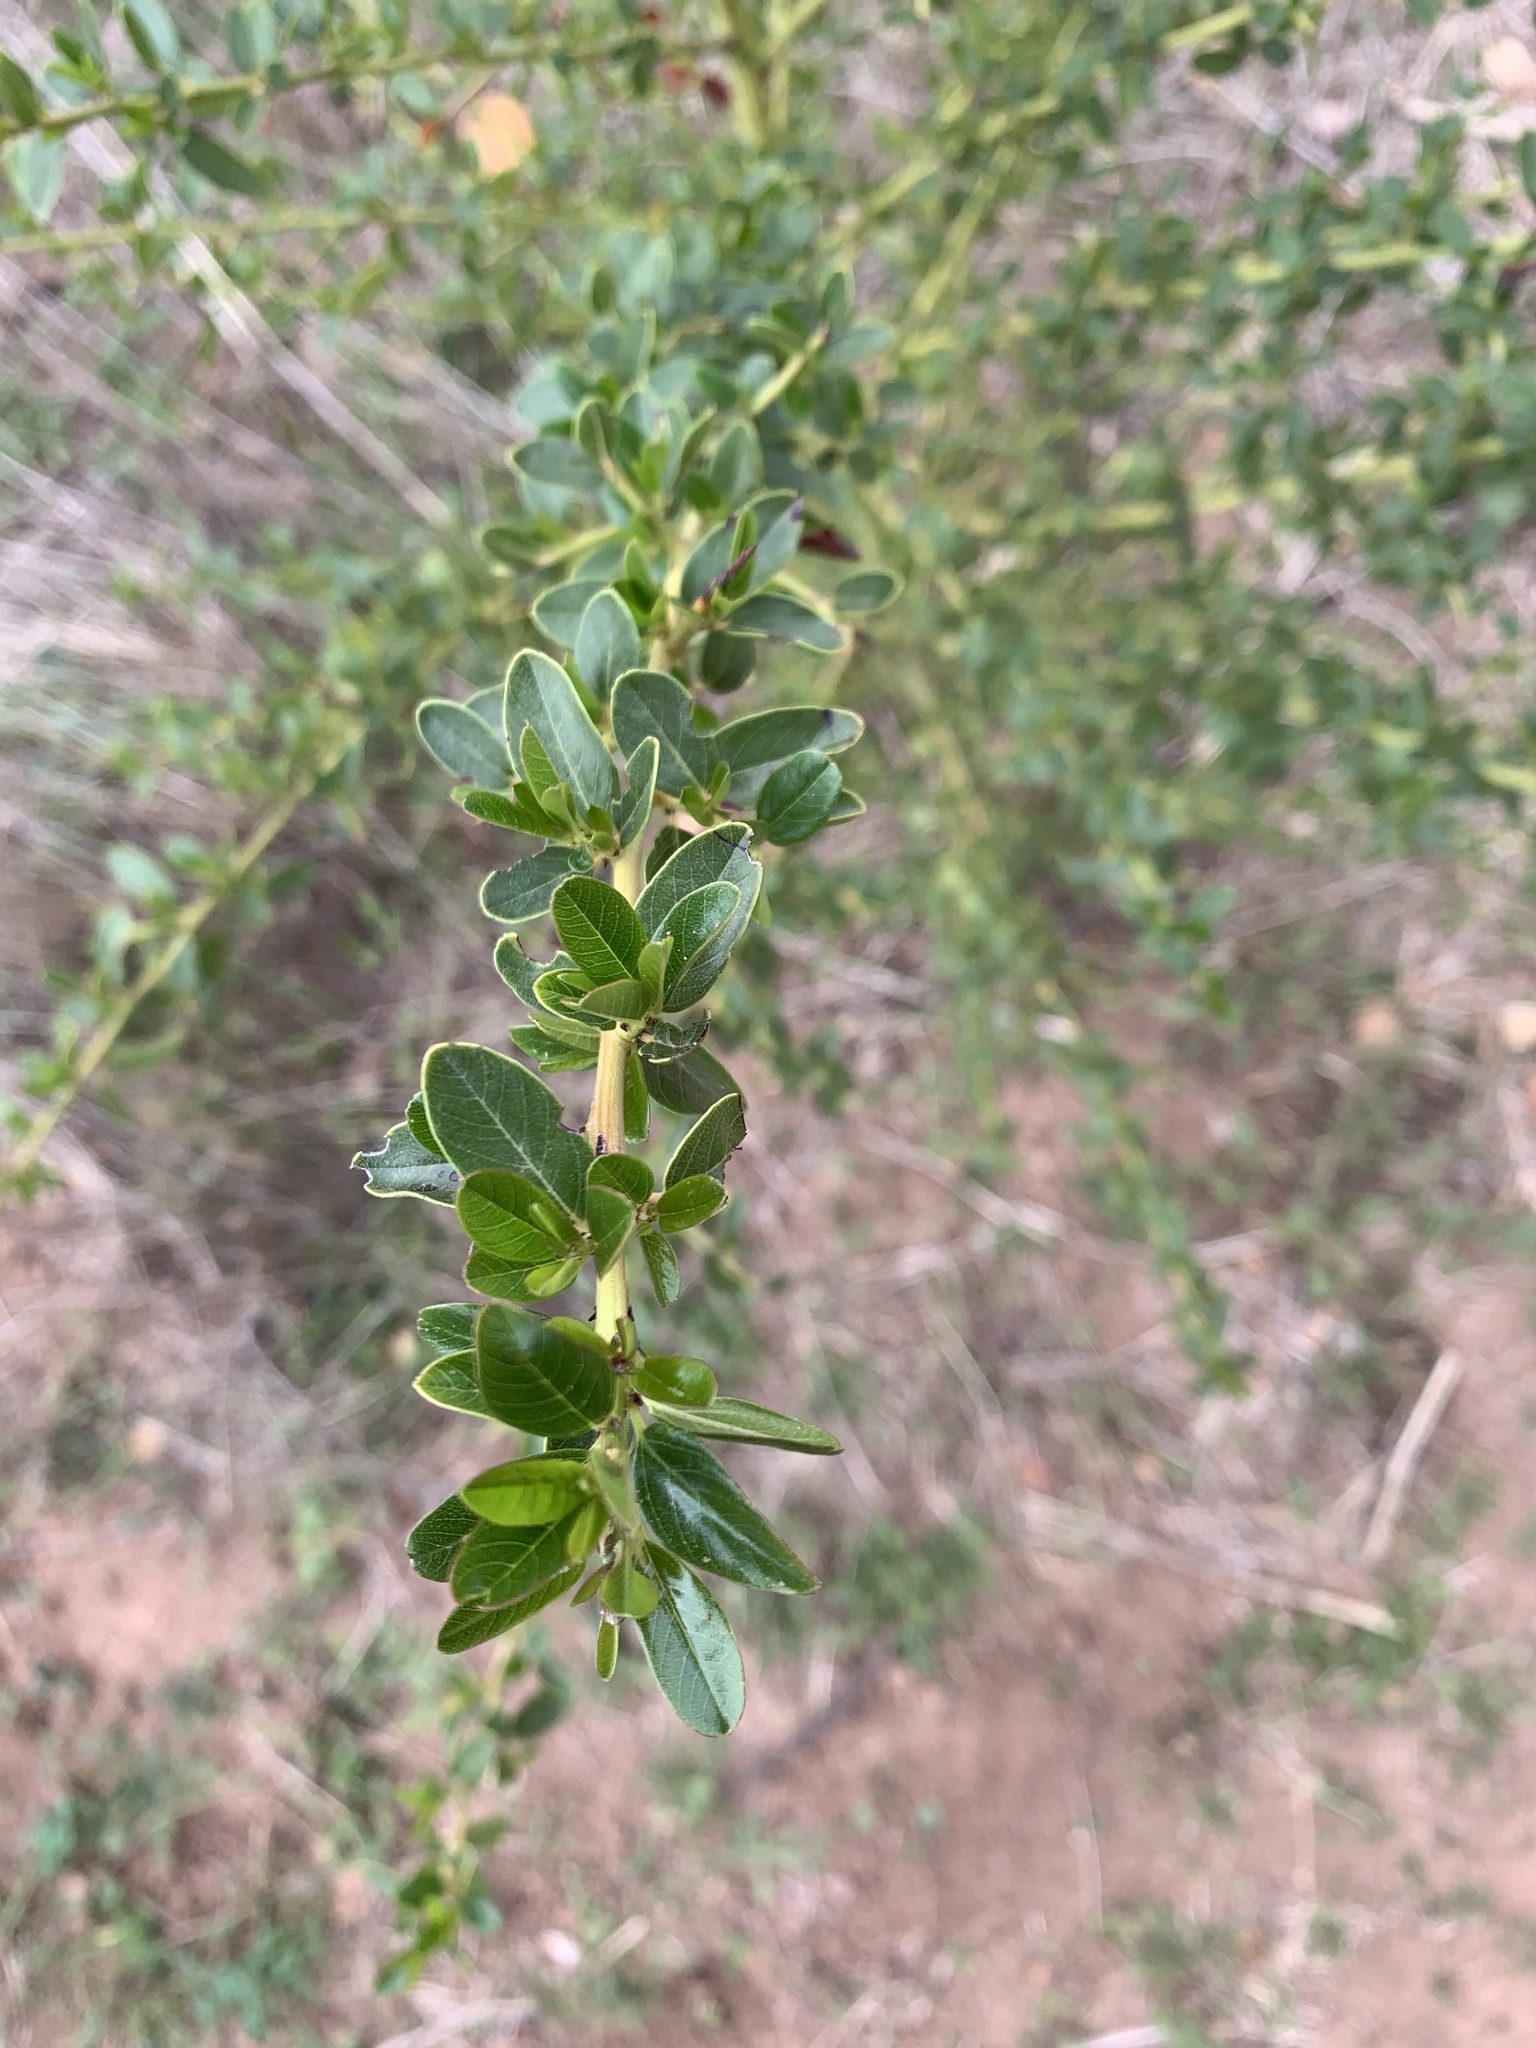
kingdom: Plantae
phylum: Tracheophyta
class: Magnoliopsida
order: Rosales
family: Rhamnaceae
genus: Ceanothus
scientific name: Ceanothus spinosus
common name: Greenbark whitethorn
